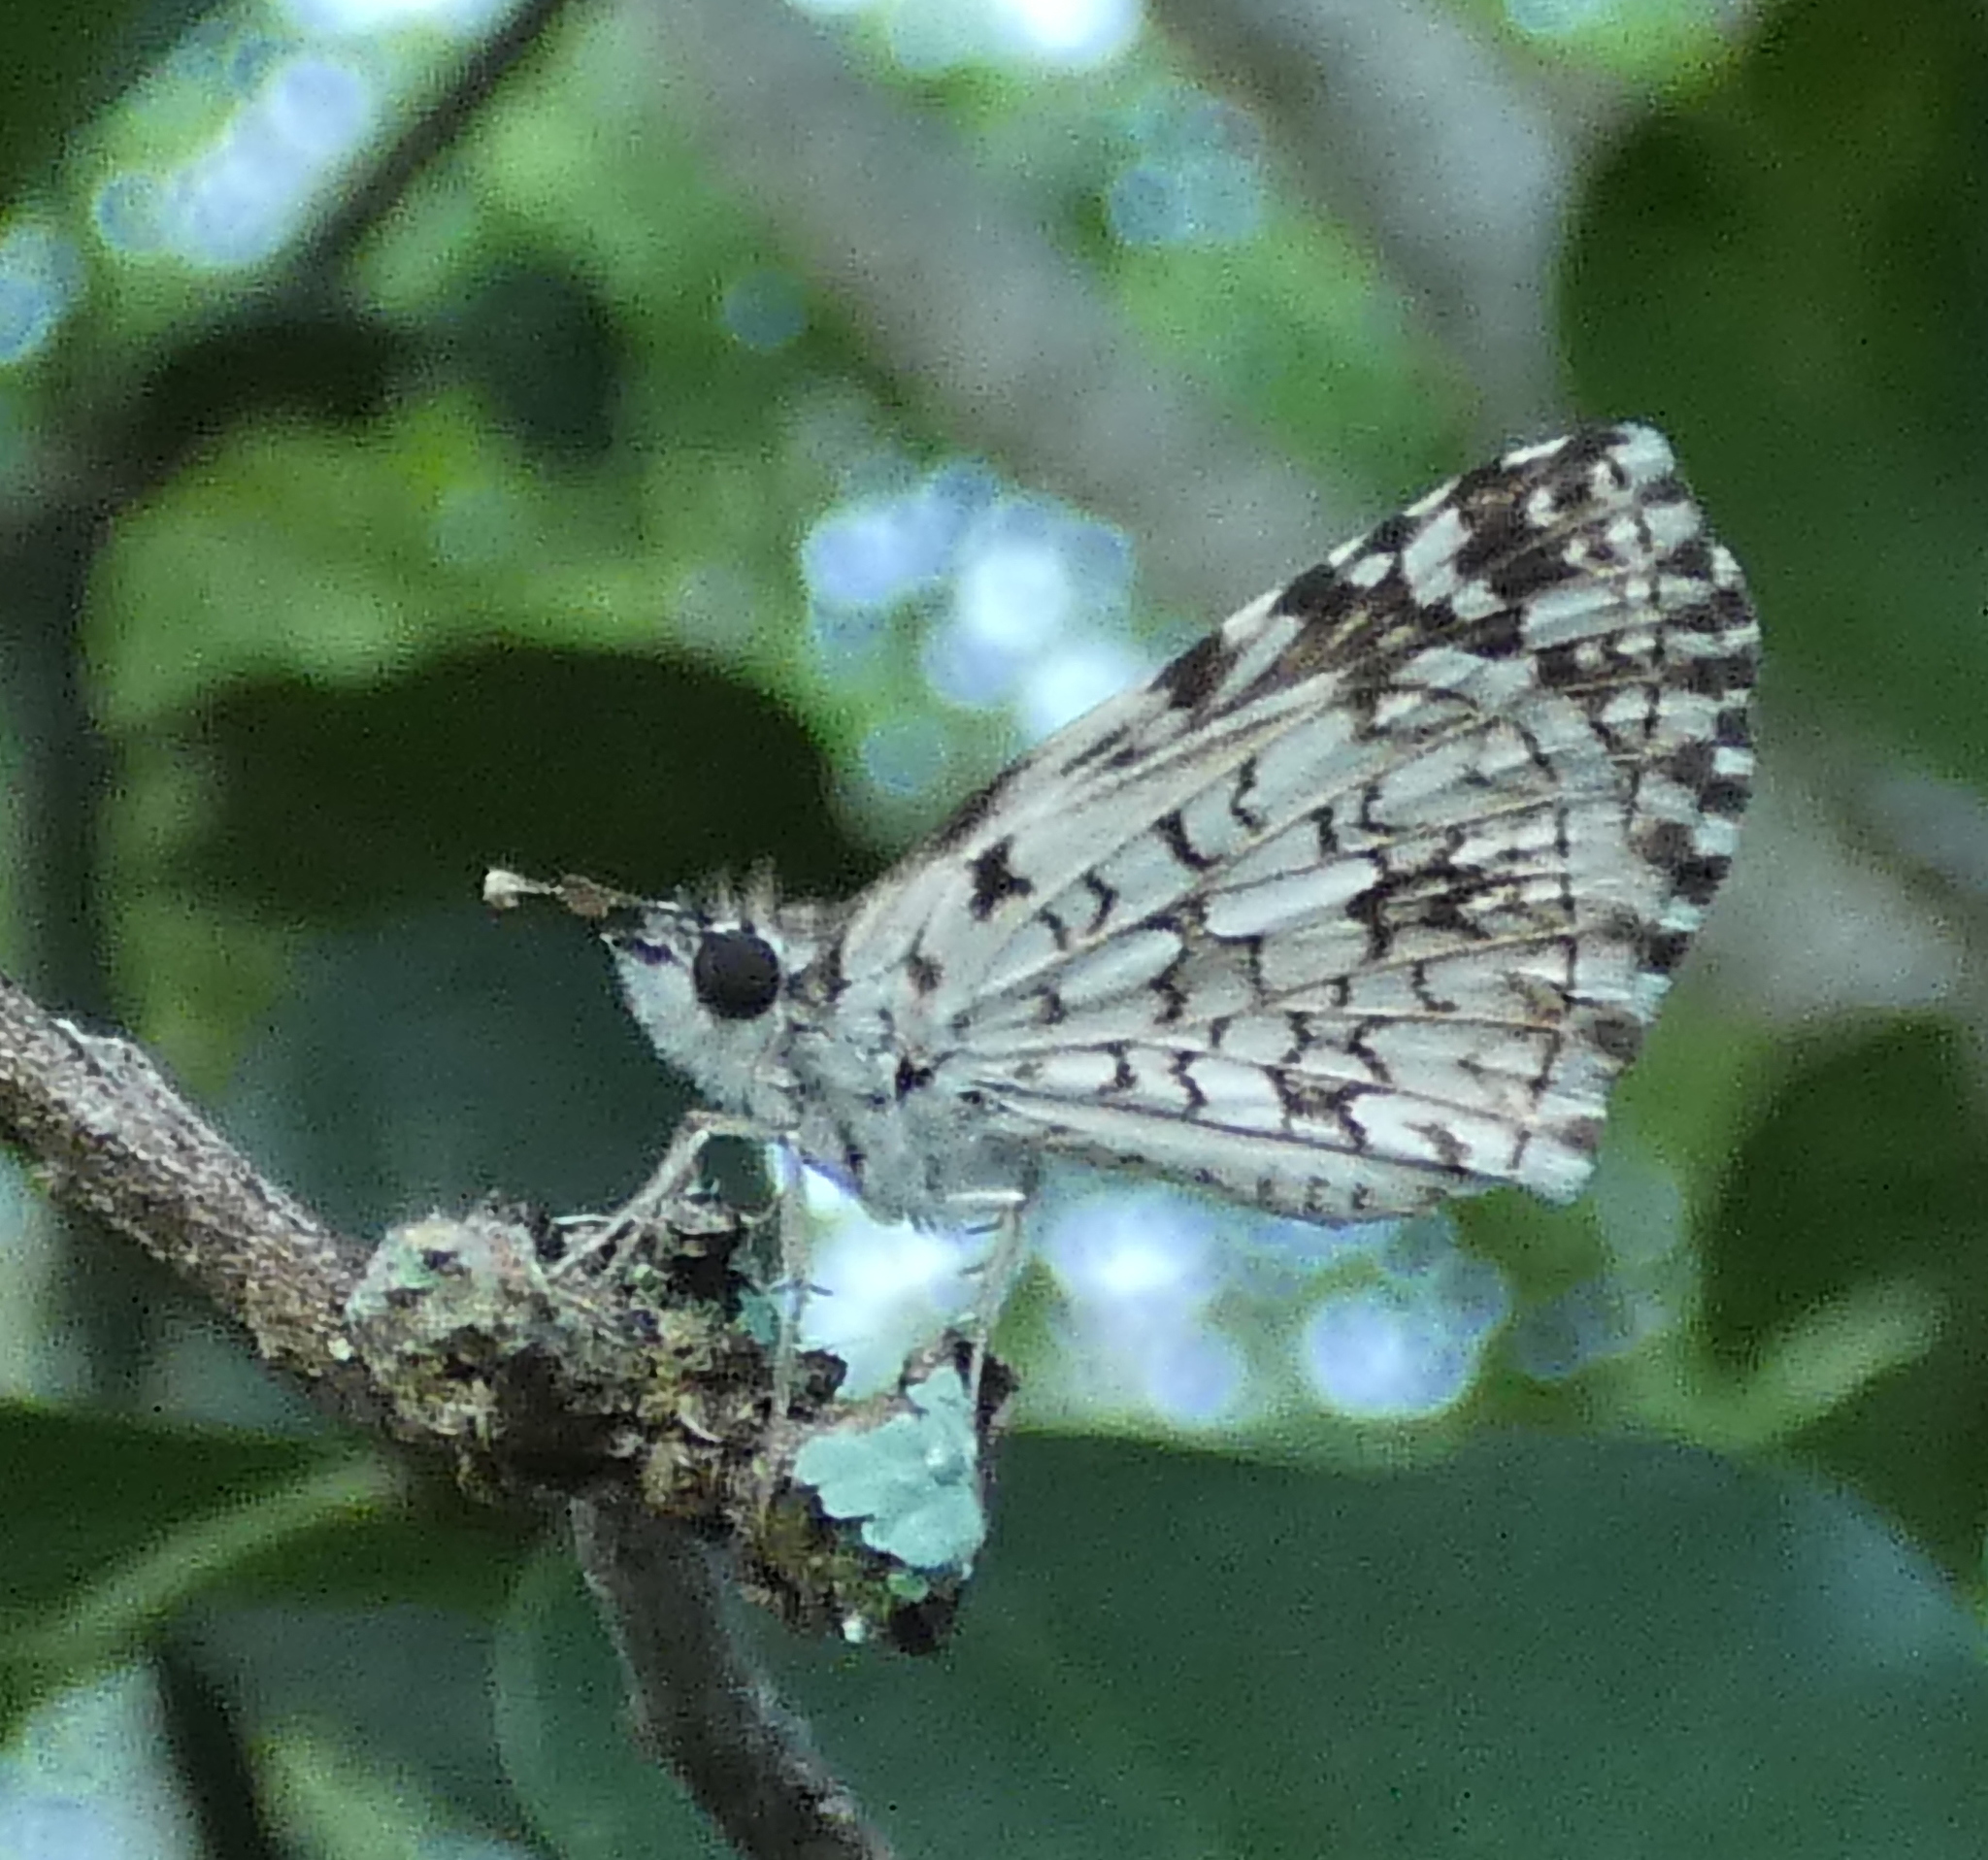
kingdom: Animalia
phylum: Arthropoda
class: Insecta
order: Lepidoptera
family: Hesperiidae
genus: Pyrgus
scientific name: Pyrgus oileus
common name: Tropical checkered-skipper
